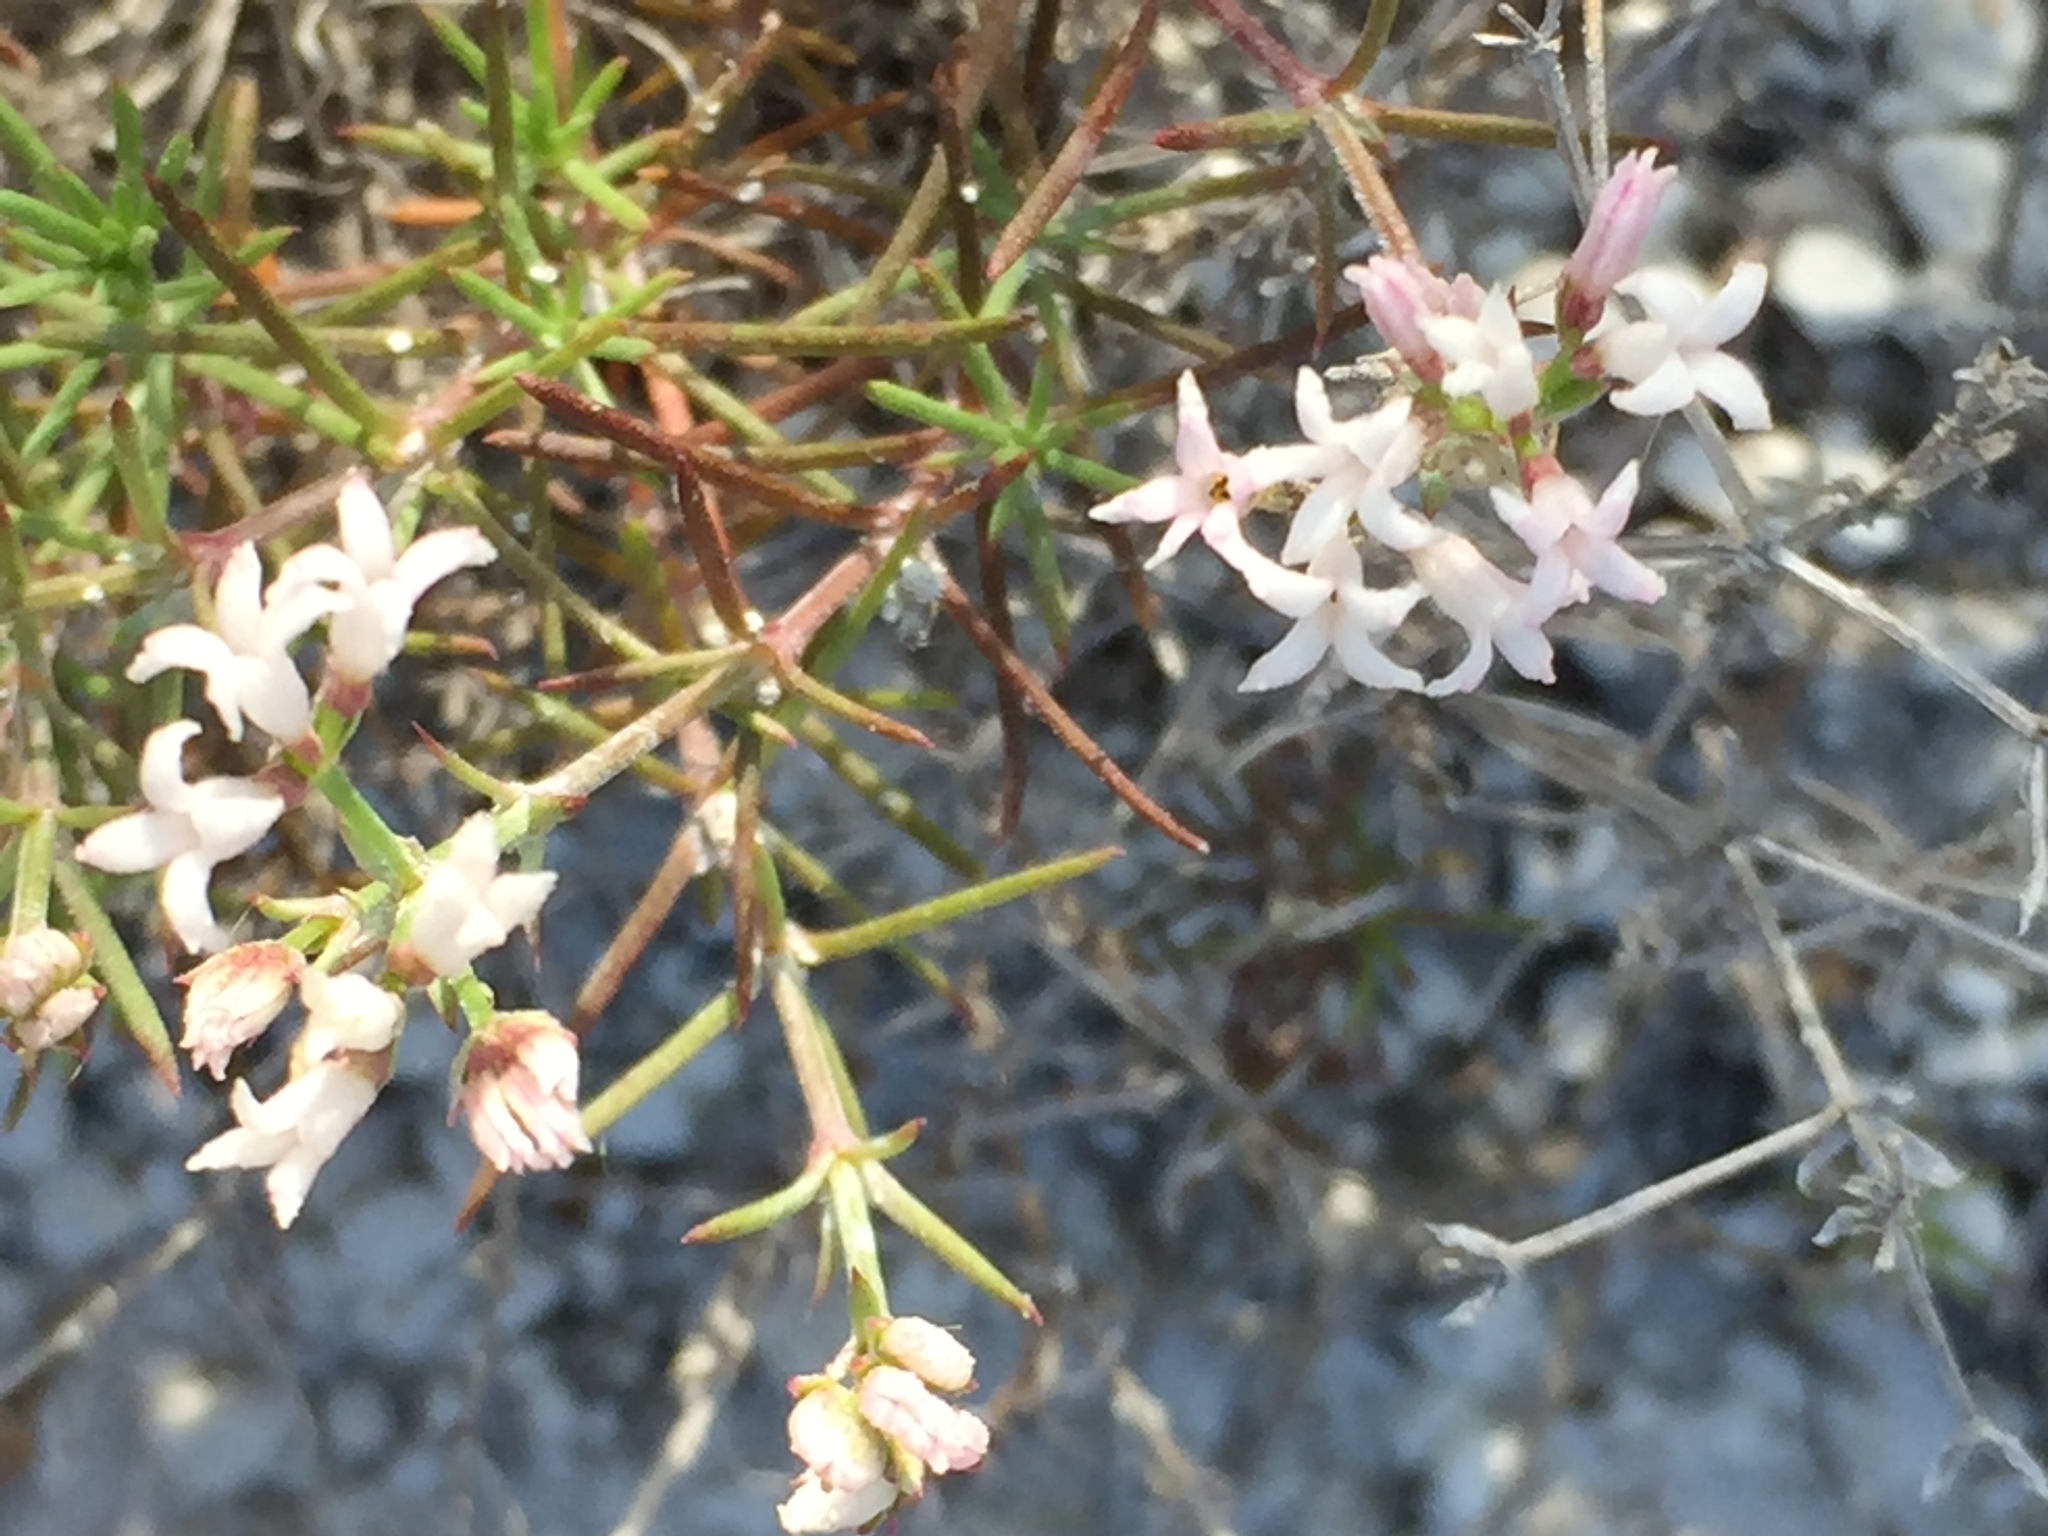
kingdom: Plantae
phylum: Tracheophyta
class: Magnoliopsida
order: Gentianales
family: Rubiaceae
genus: Cynanchica
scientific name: Cynanchica tephrocarpa
